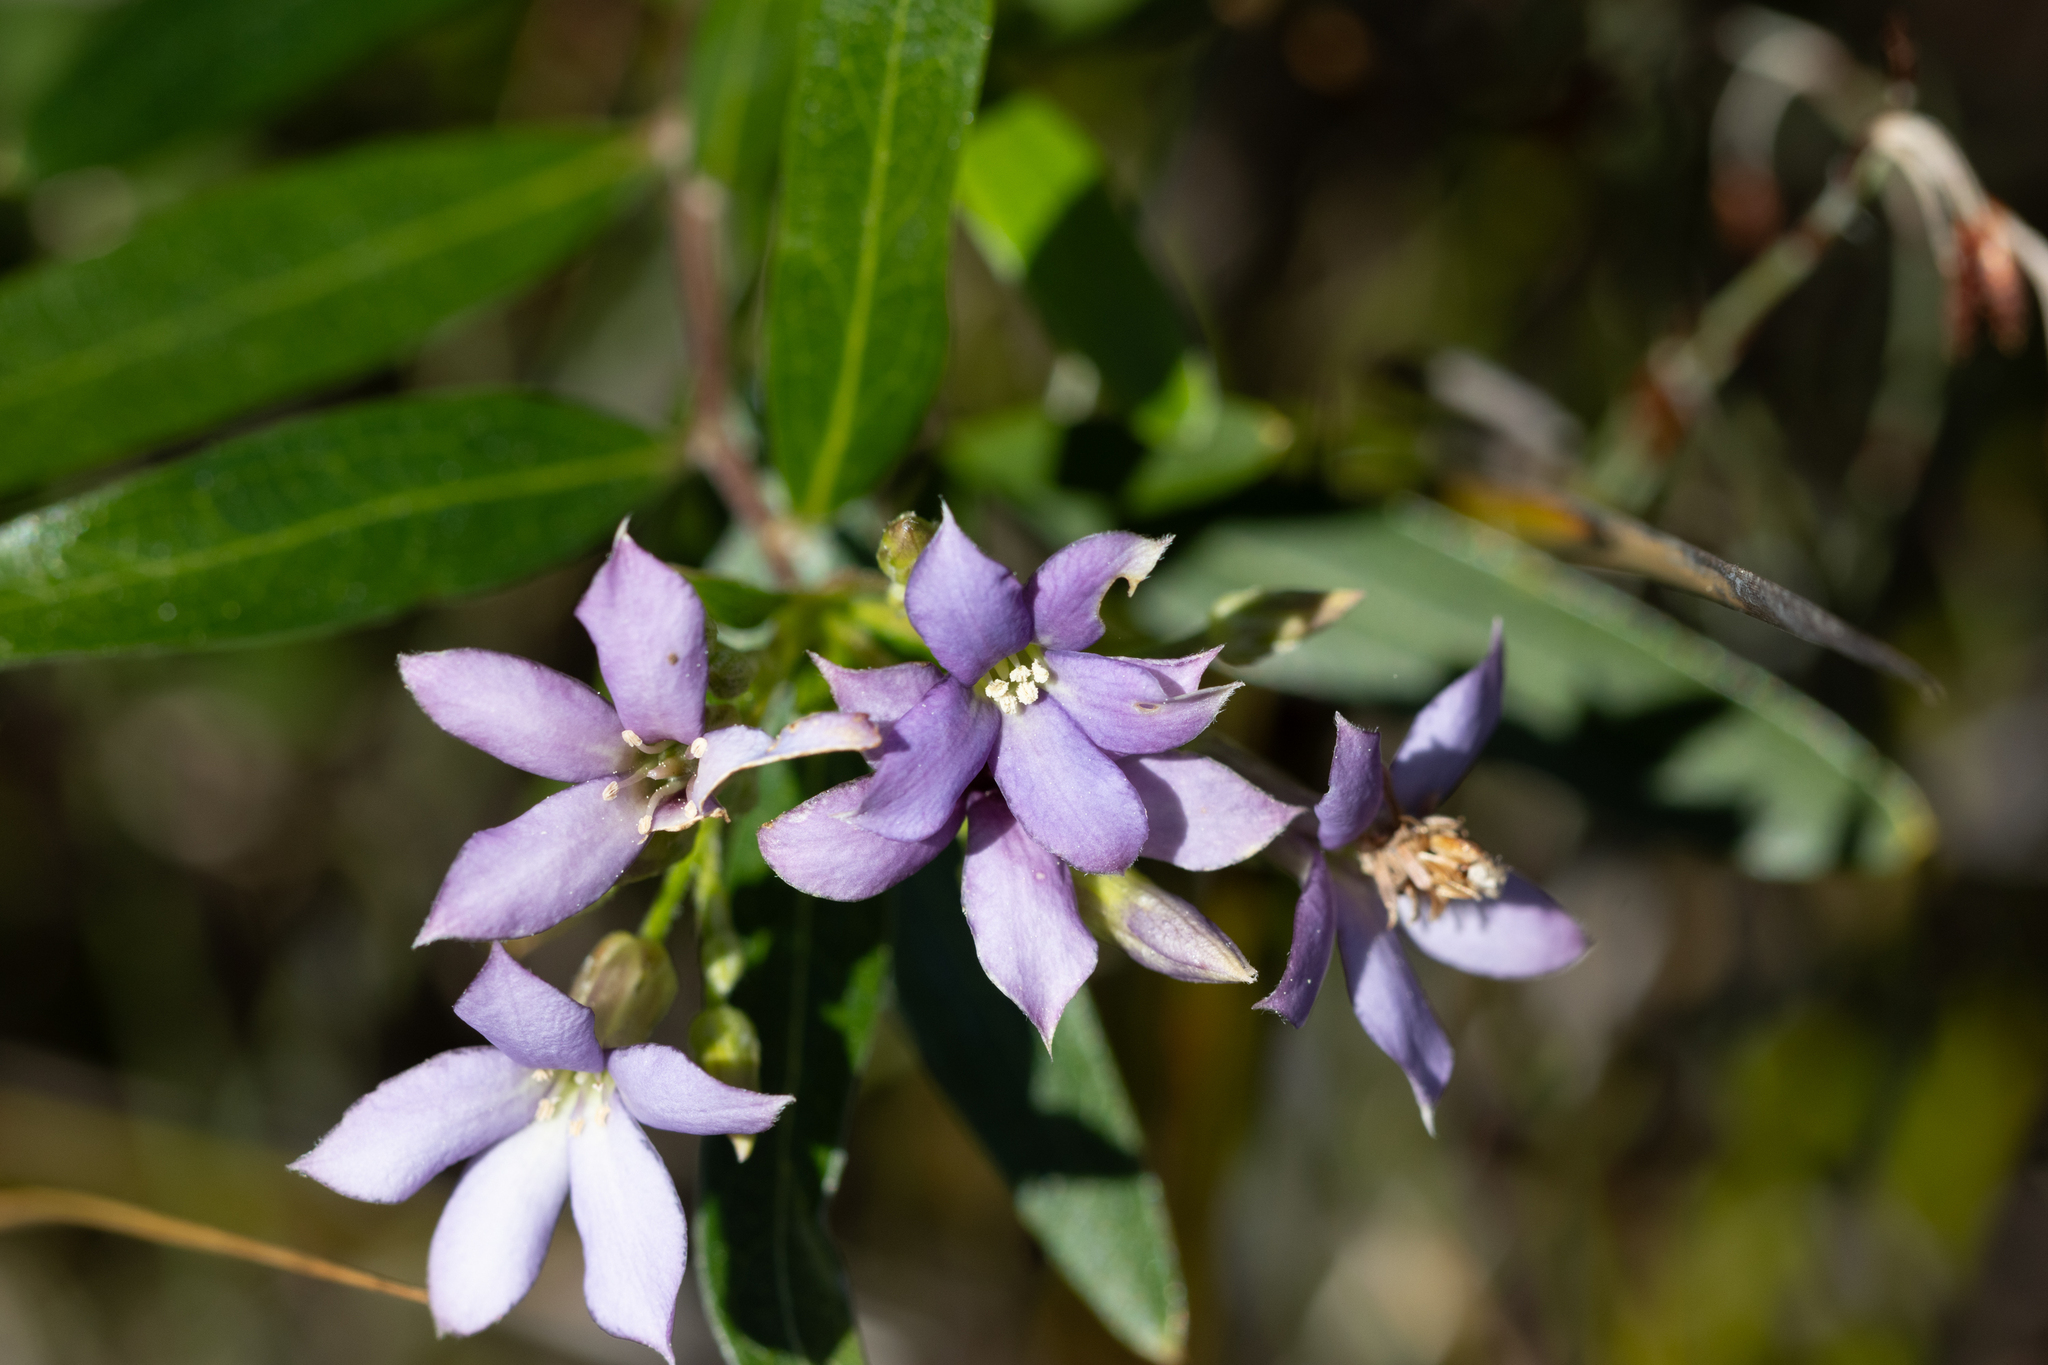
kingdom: Plantae
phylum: Tracheophyta
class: Magnoliopsida
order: Apiales
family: Pittosporaceae
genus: Billardiera
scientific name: Billardiera cymosa
